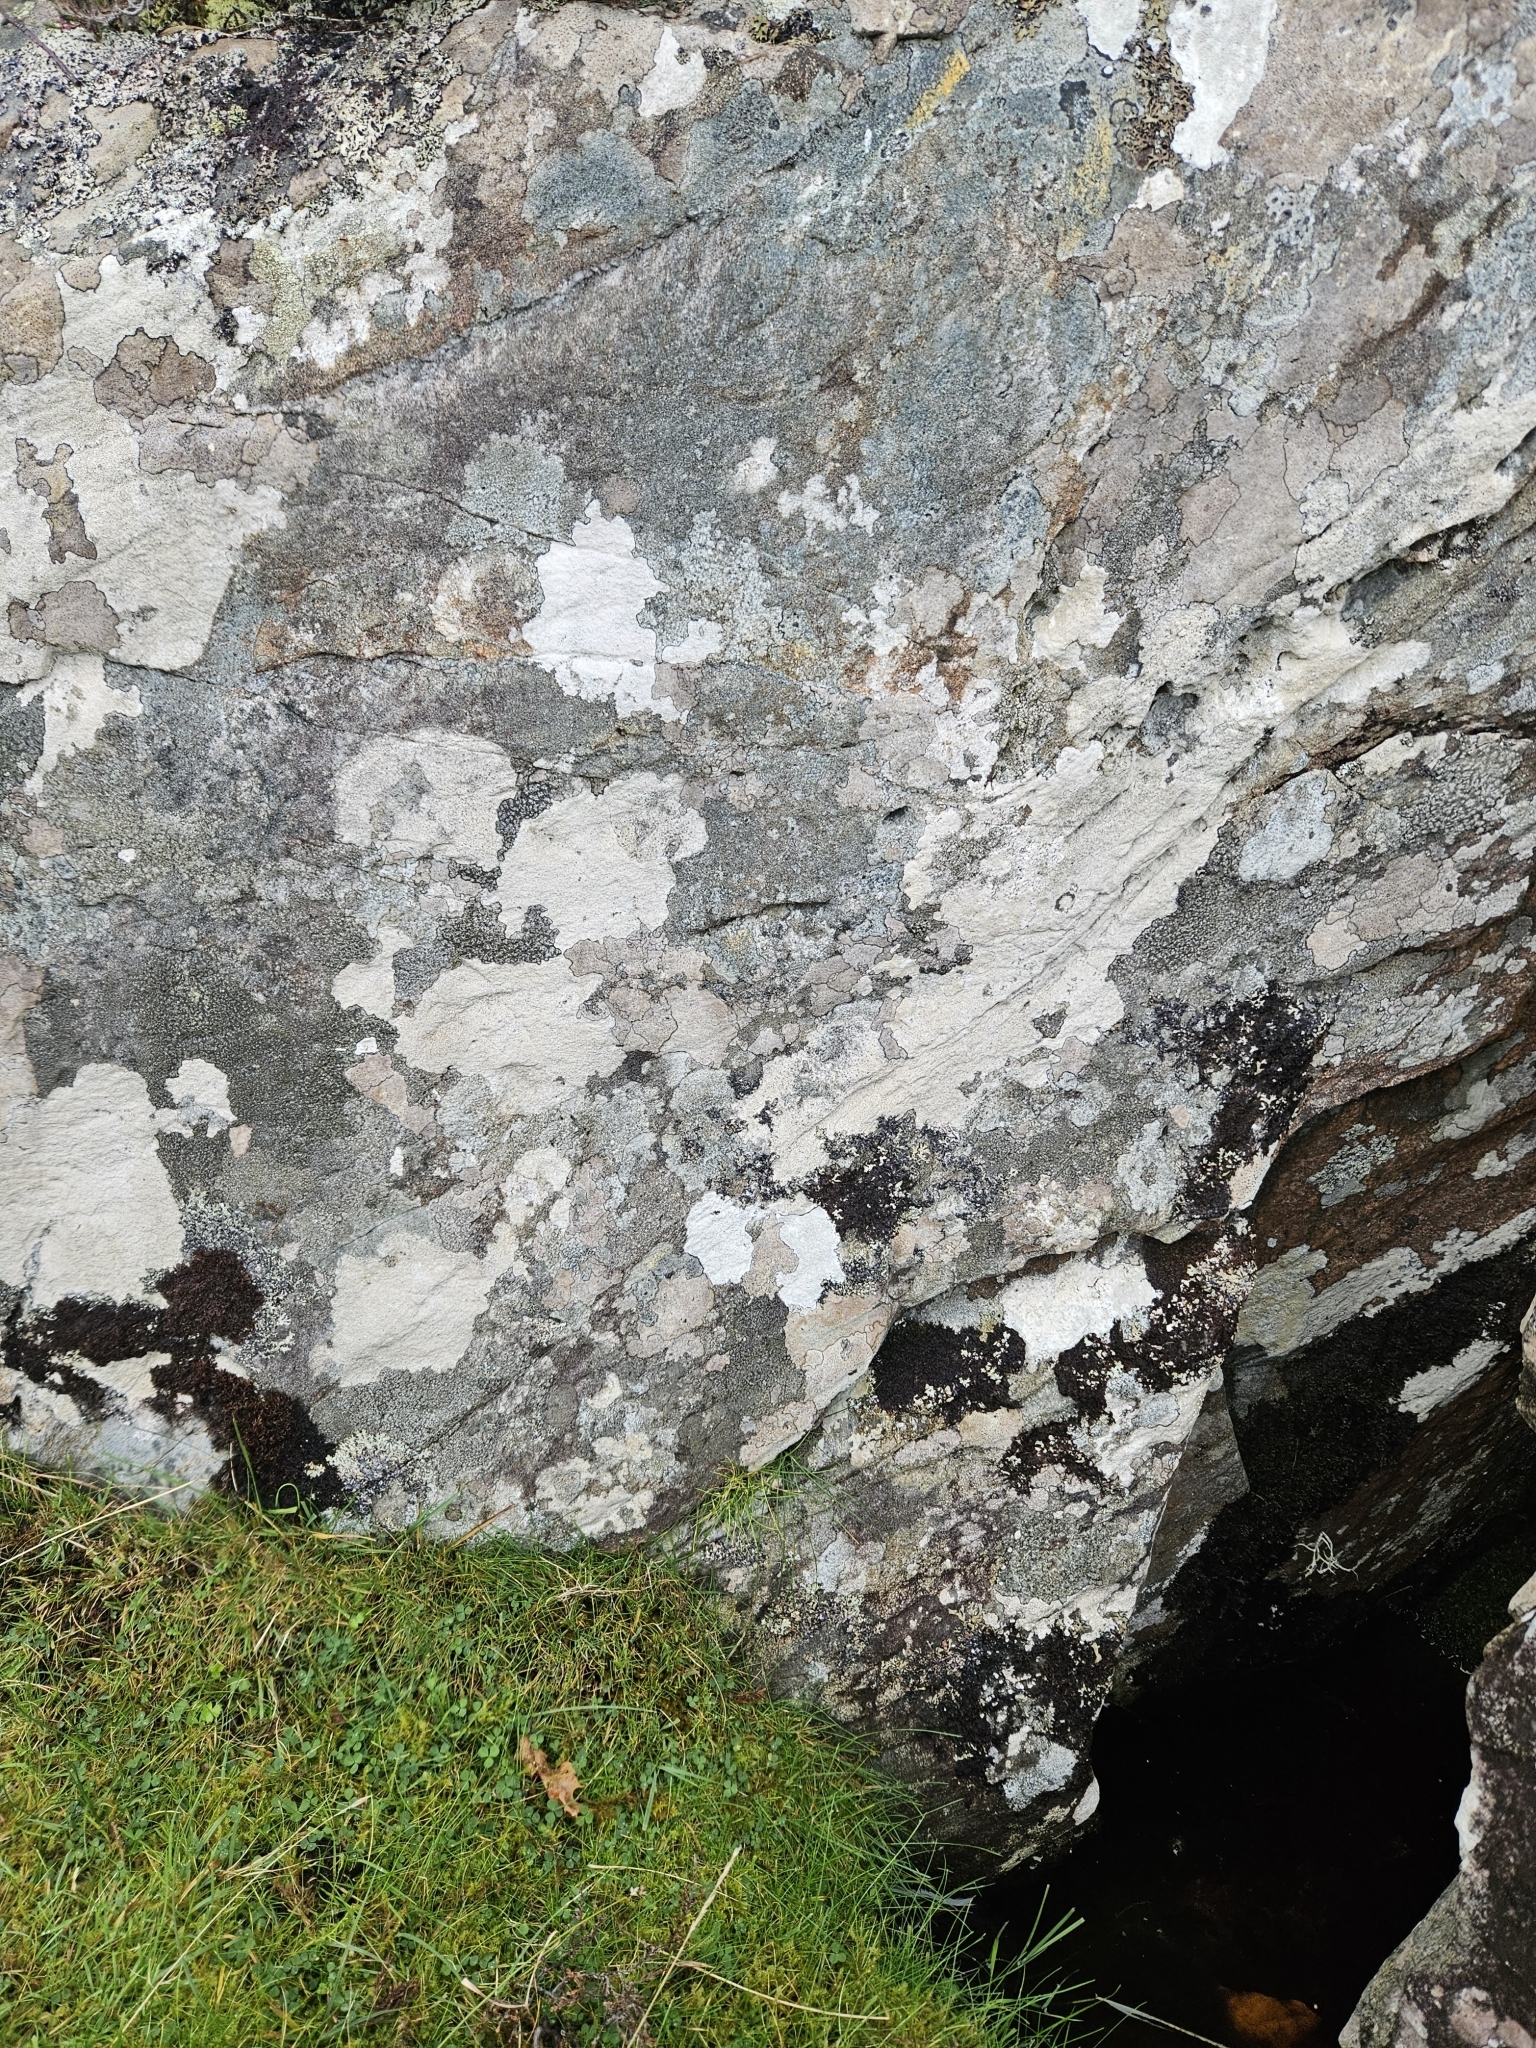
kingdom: Plantae
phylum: Marchantiophyta
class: Jungermanniopsida
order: Porellales
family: Frullaniaceae
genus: Frullania
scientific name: Frullania fragilifolia
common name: Spotty scalewort
